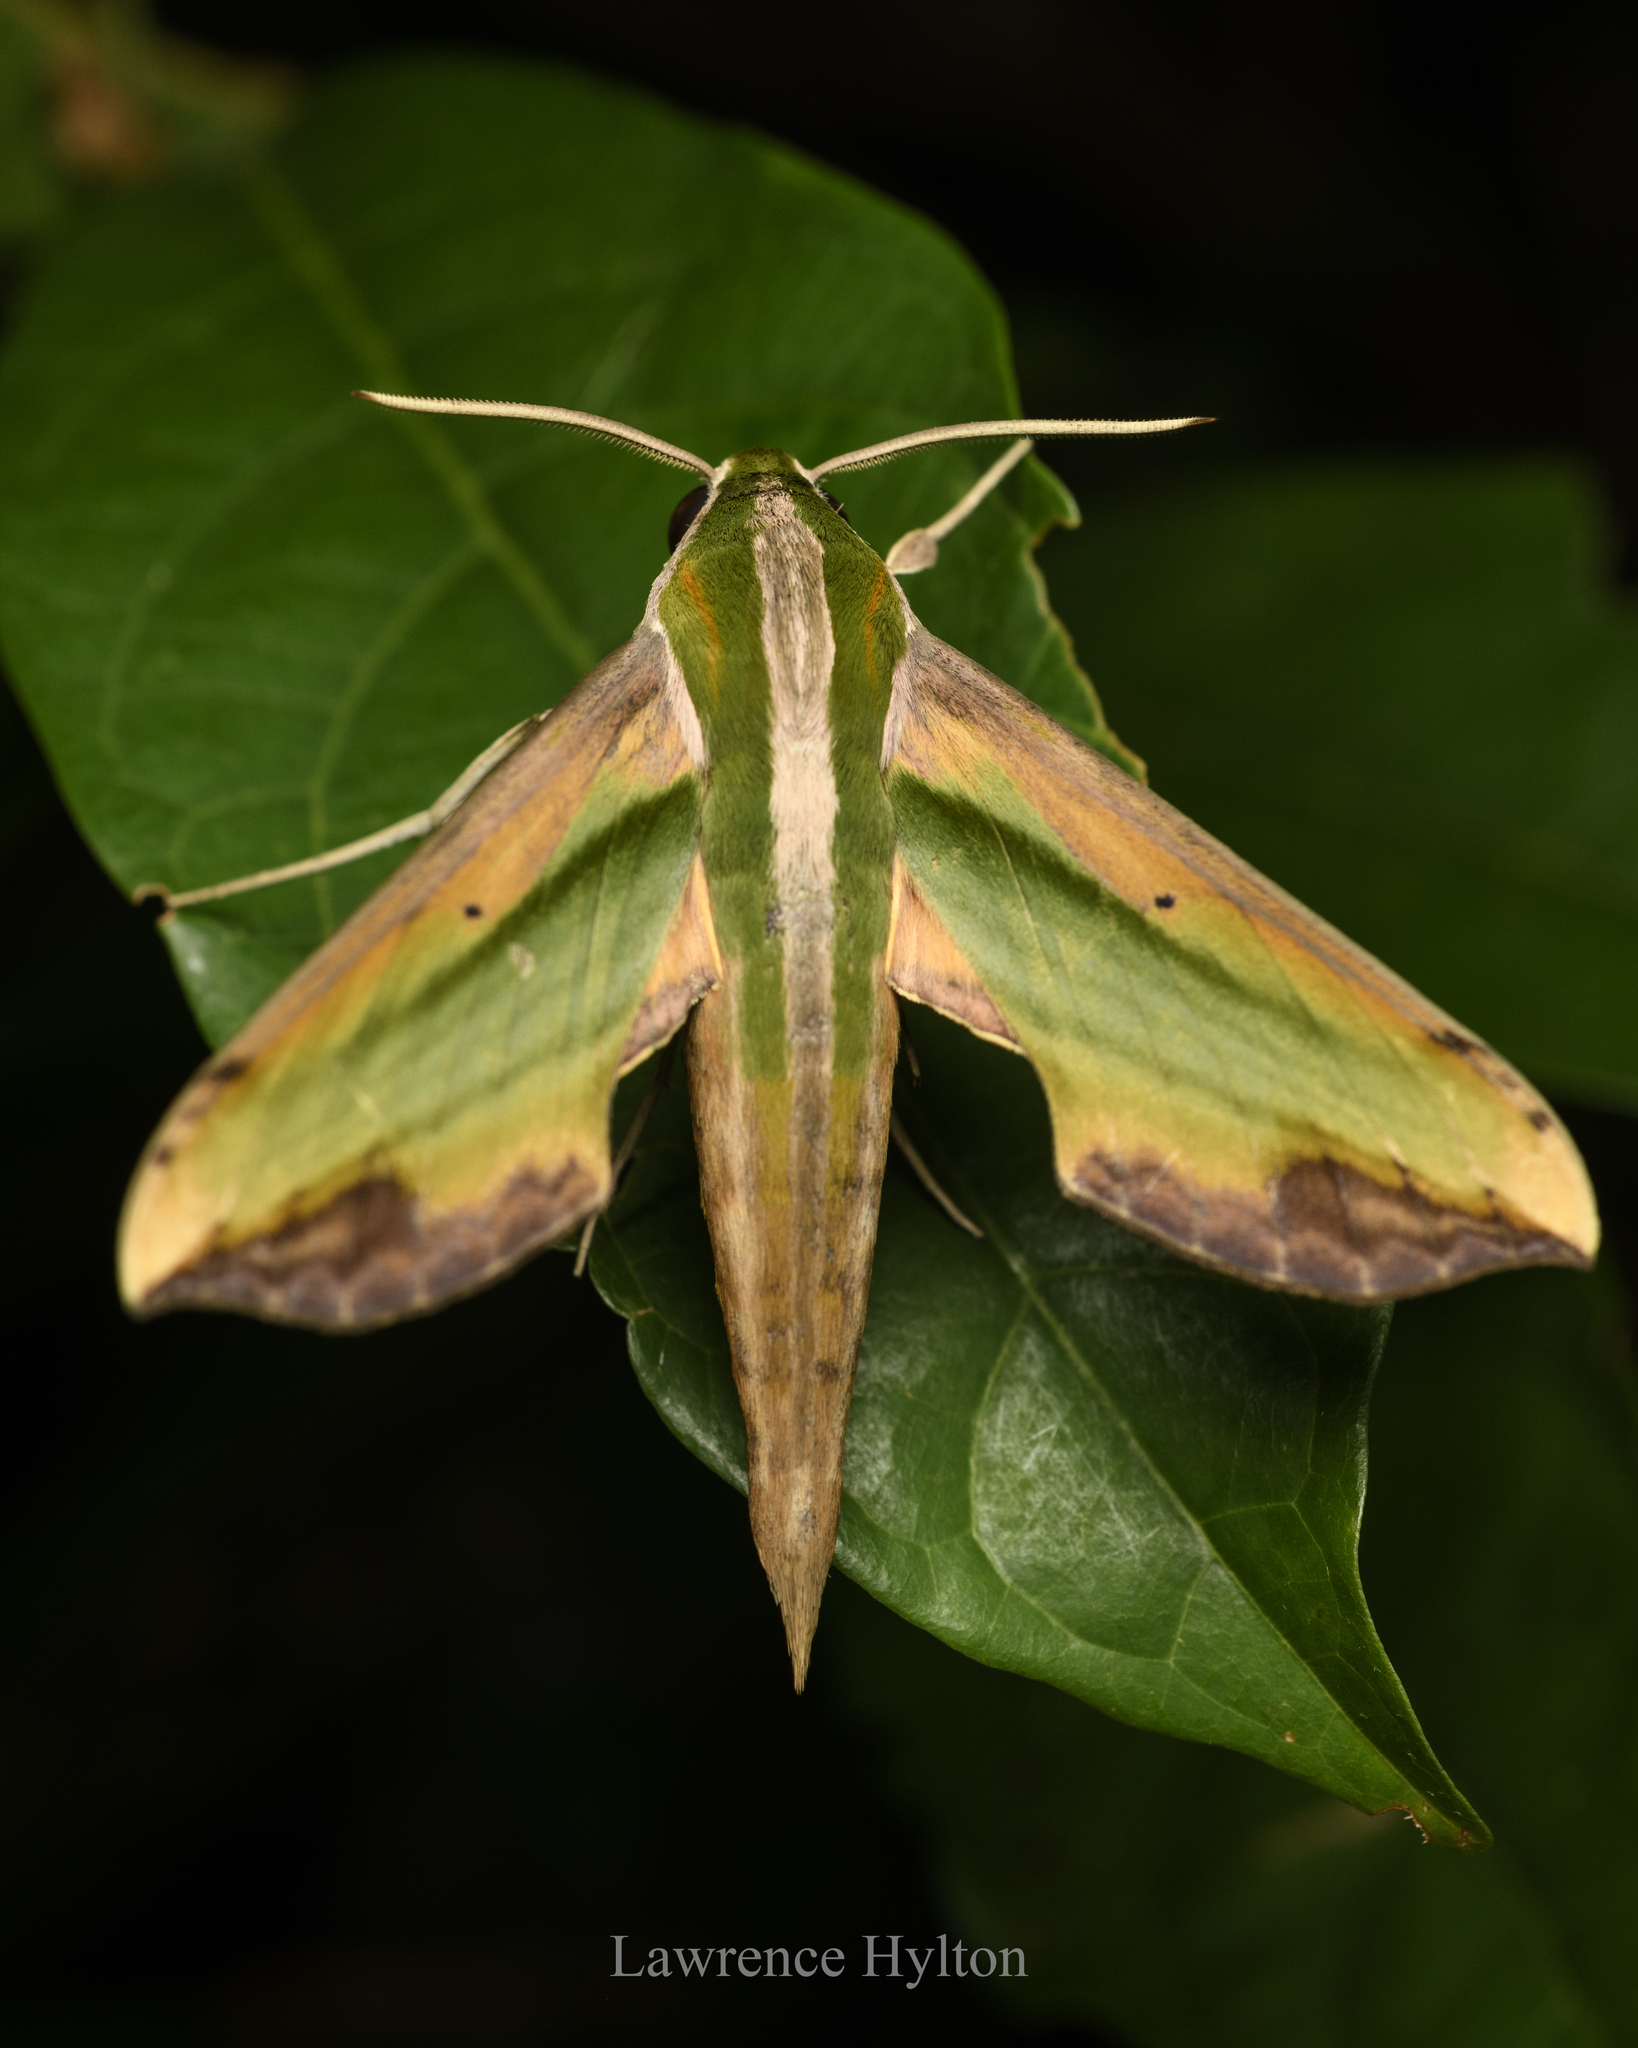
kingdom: Animalia
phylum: Arthropoda
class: Insecta
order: Lepidoptera
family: Sphingidae
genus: Pergesa
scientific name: Pergesa acteus
